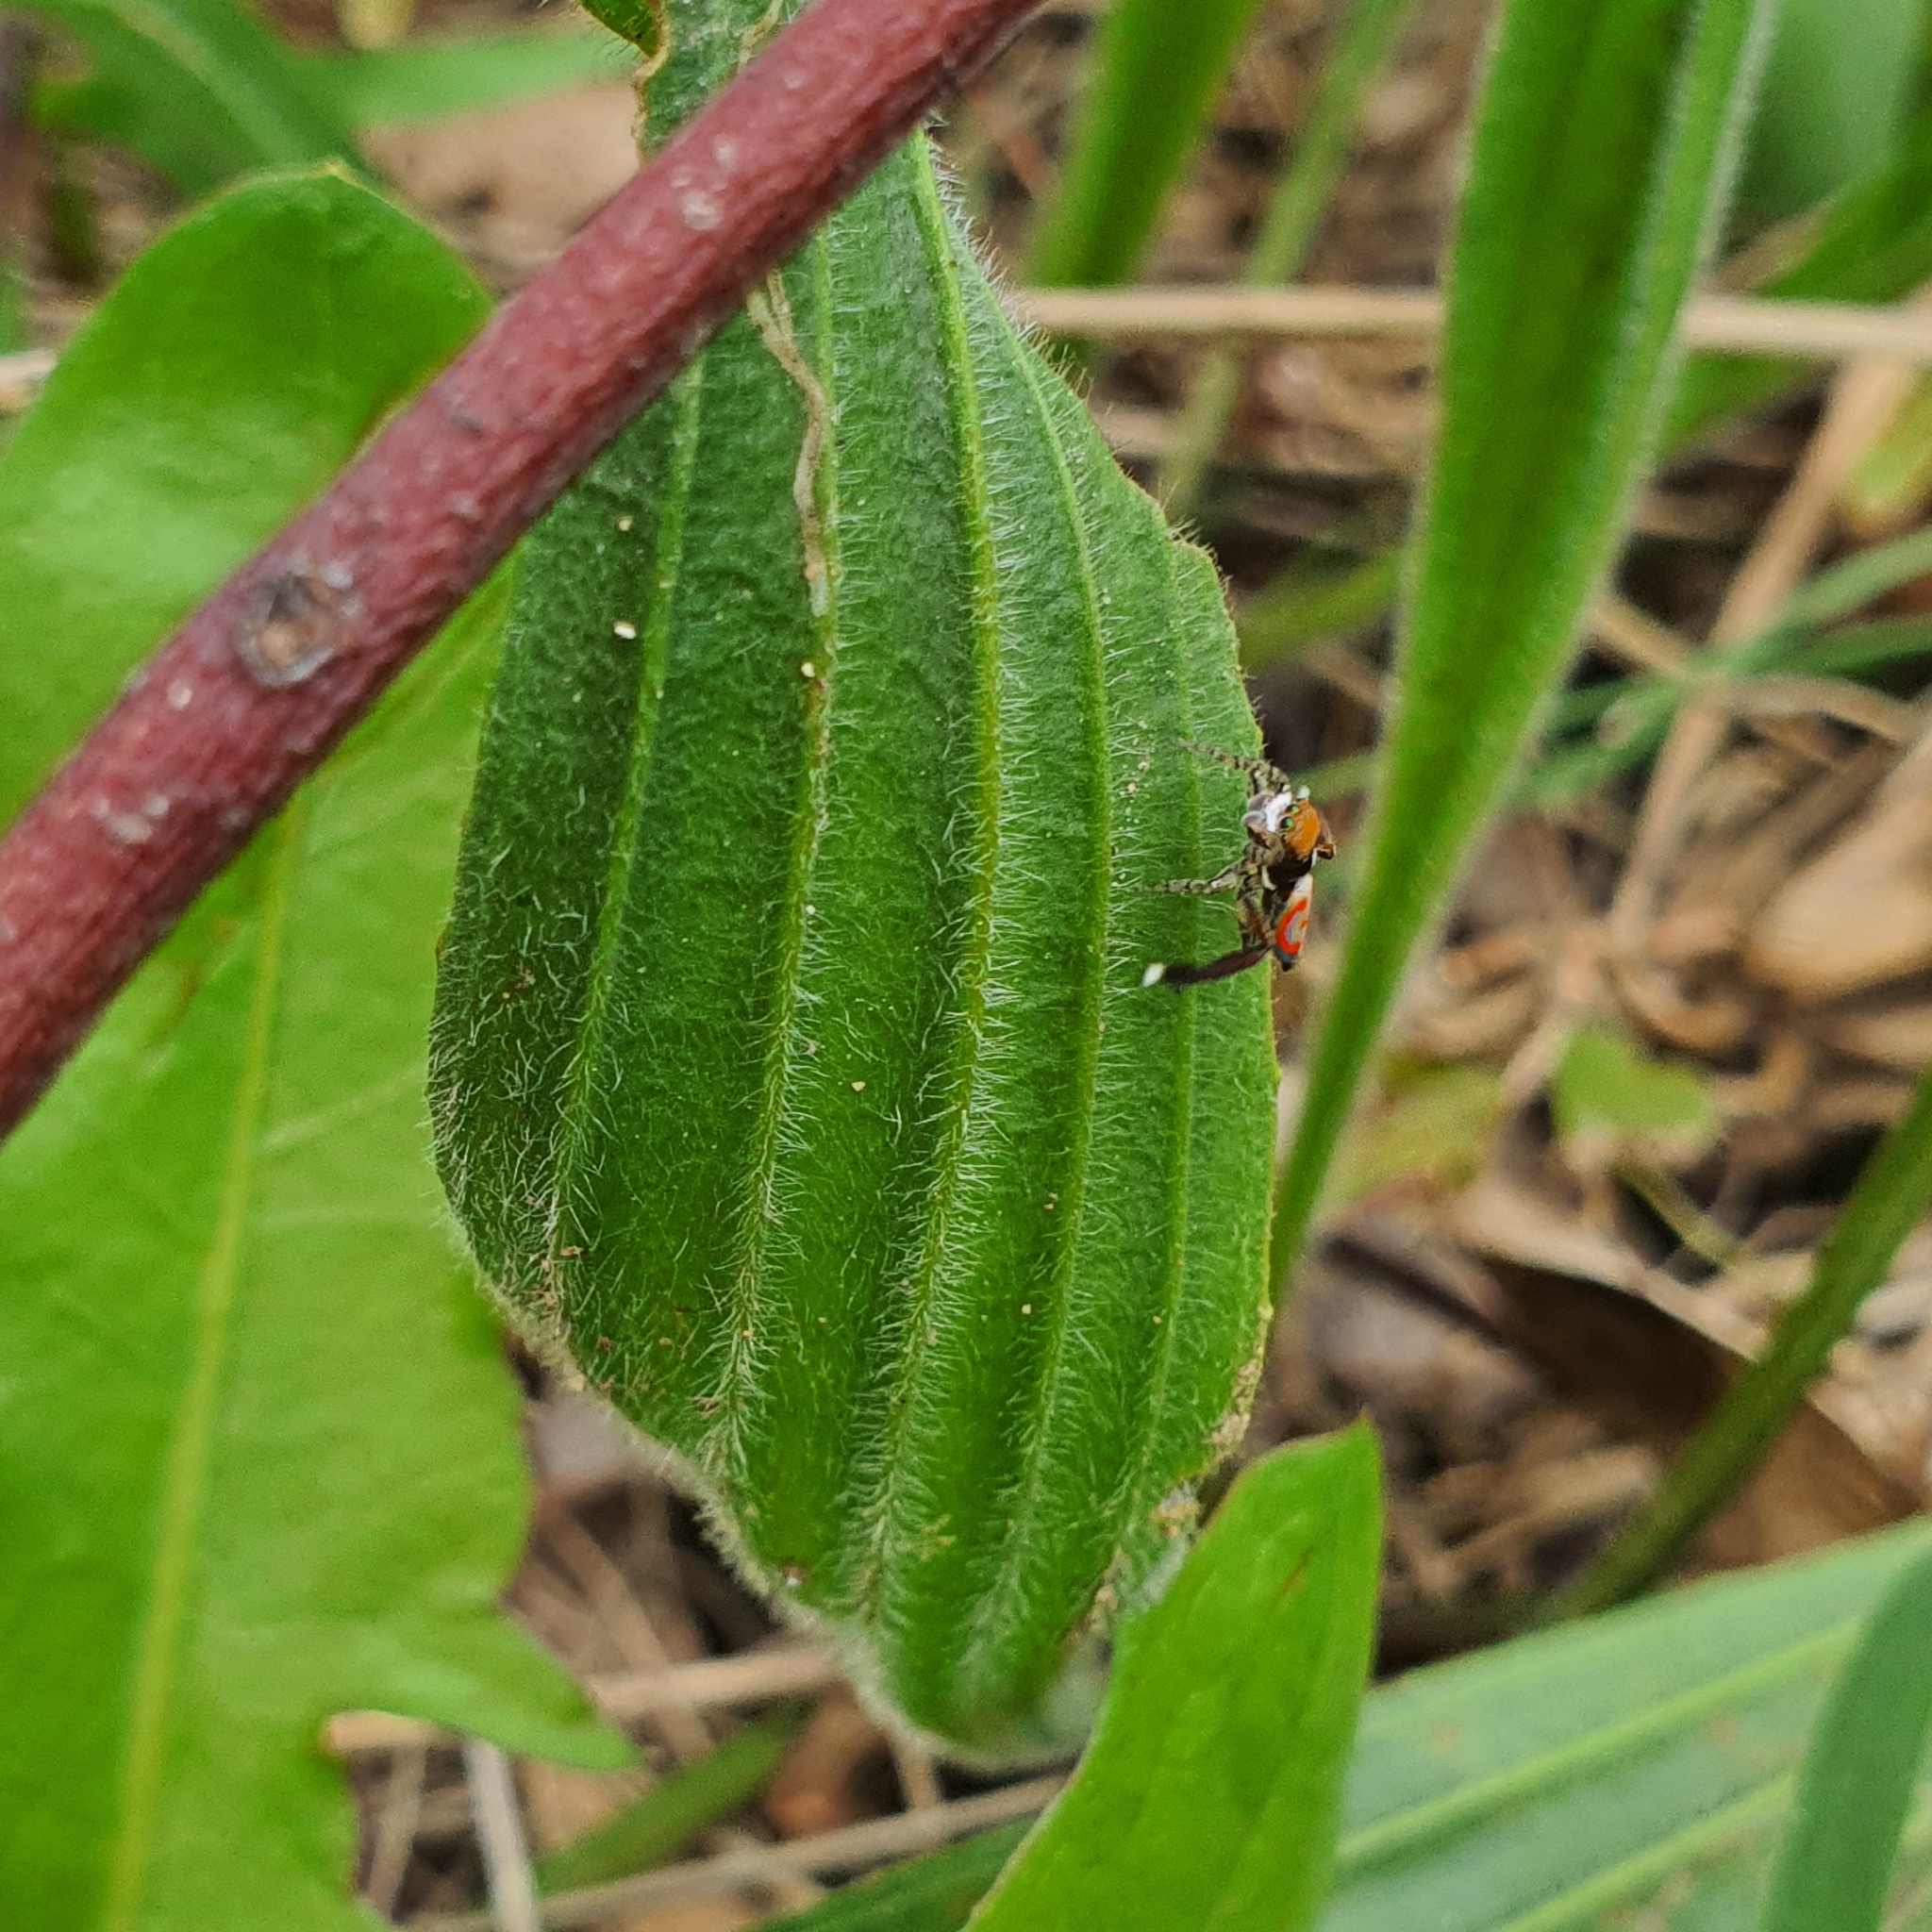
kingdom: Animalia
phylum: Arthropoda
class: Arachnida
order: Araneae
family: Salticidae
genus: Maratus
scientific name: Maratus pavonis
